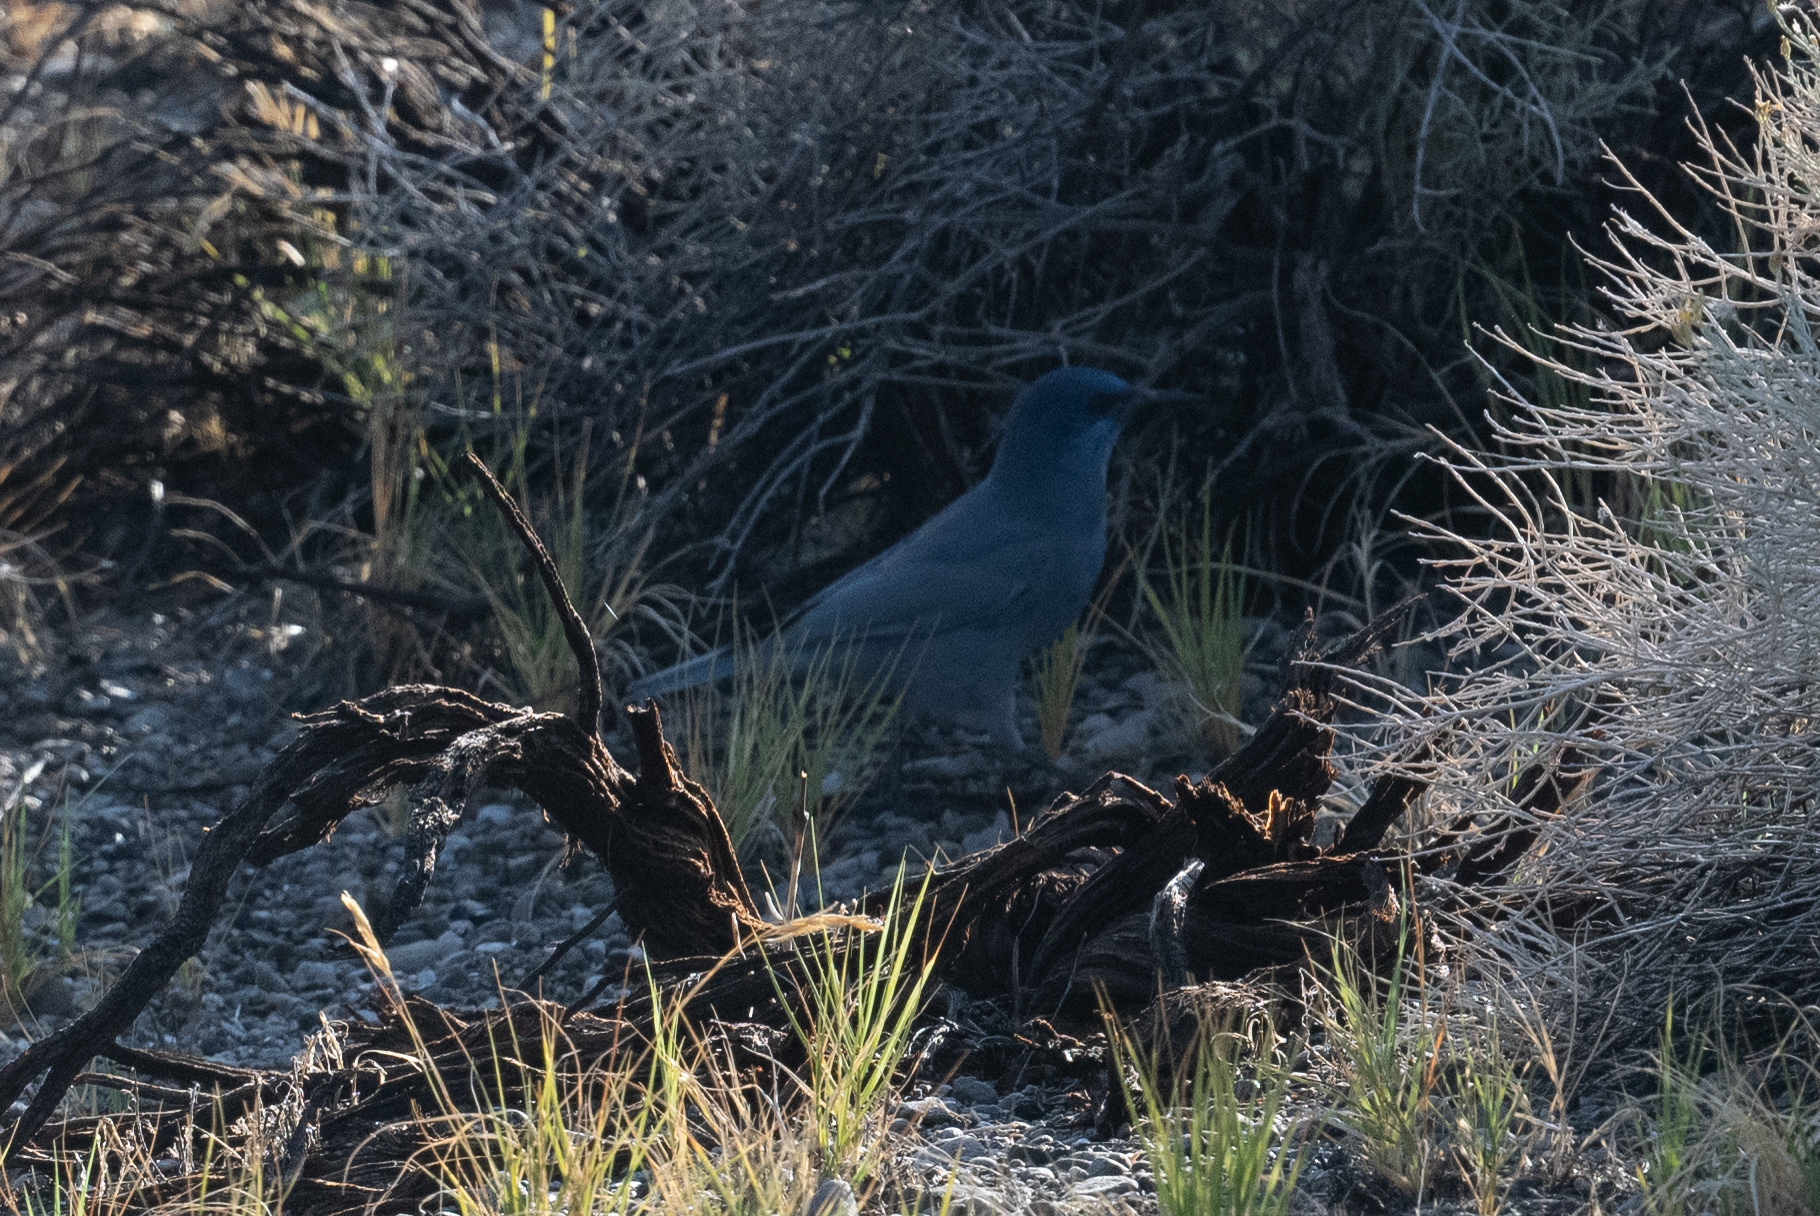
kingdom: Animalia
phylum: Chordata
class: Aves
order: Passeriformes
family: Corvidae
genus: Gymnorhinus
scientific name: Gymnorhinus cyanocephalus
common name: Pinyon jay
